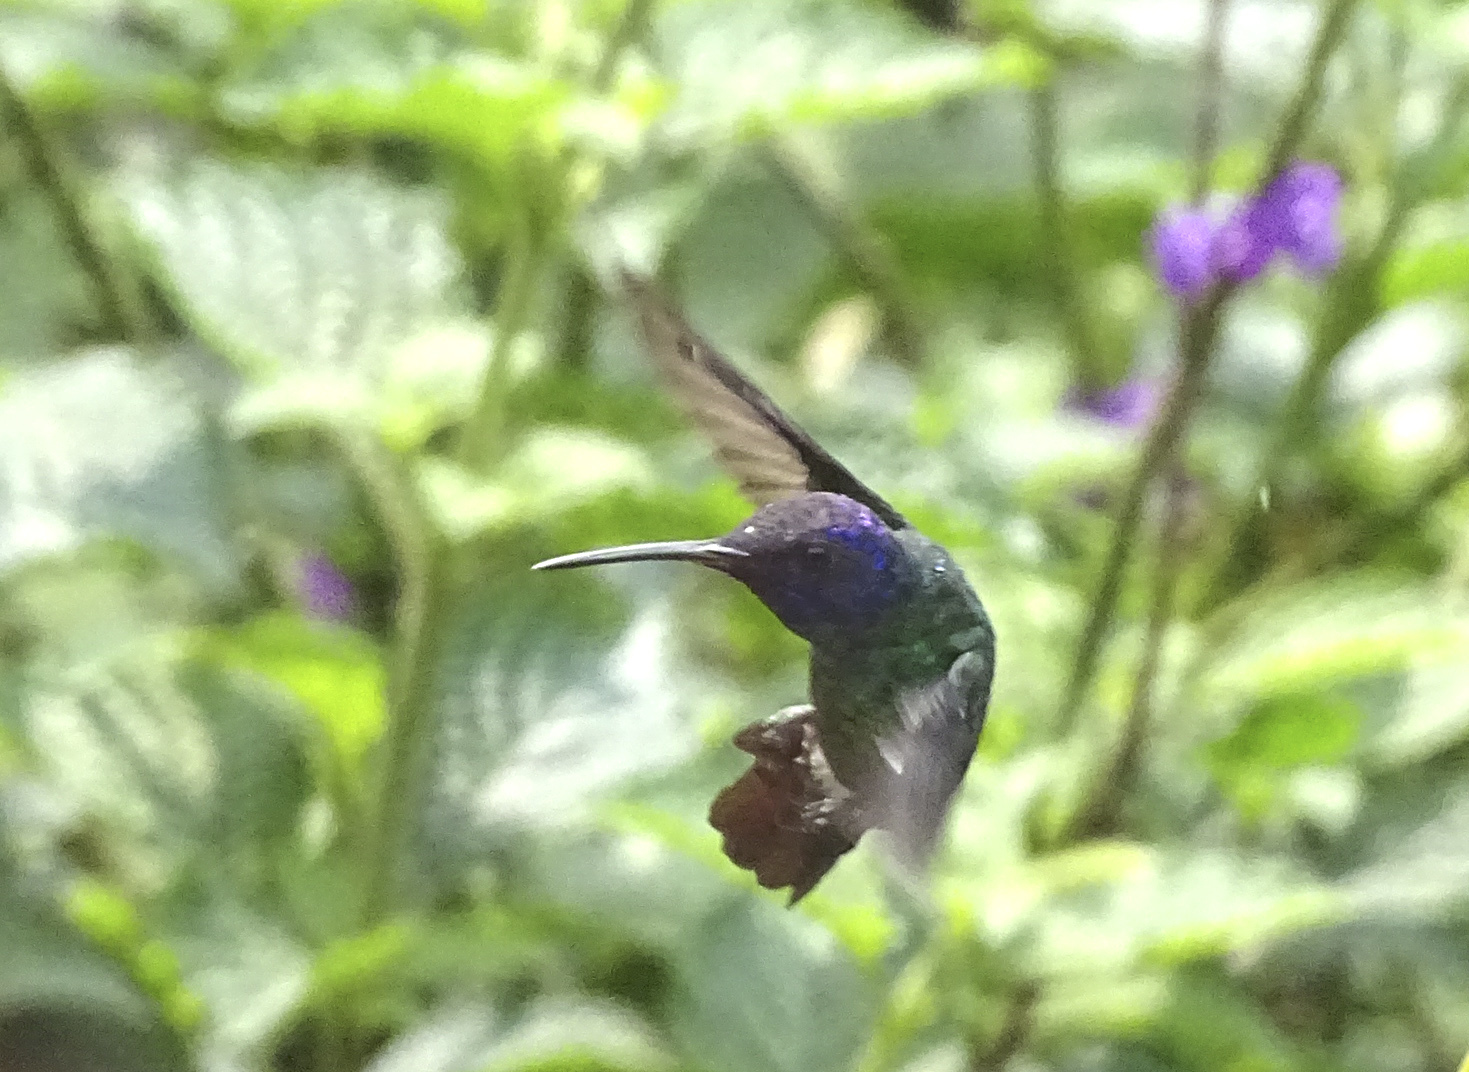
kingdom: Animalia
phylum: Chordata
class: Aves
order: Apodiformes
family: Trochilidae
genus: Chrysuronia
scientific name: Chrysuronia oenone
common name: Golden-tailed sapphire
